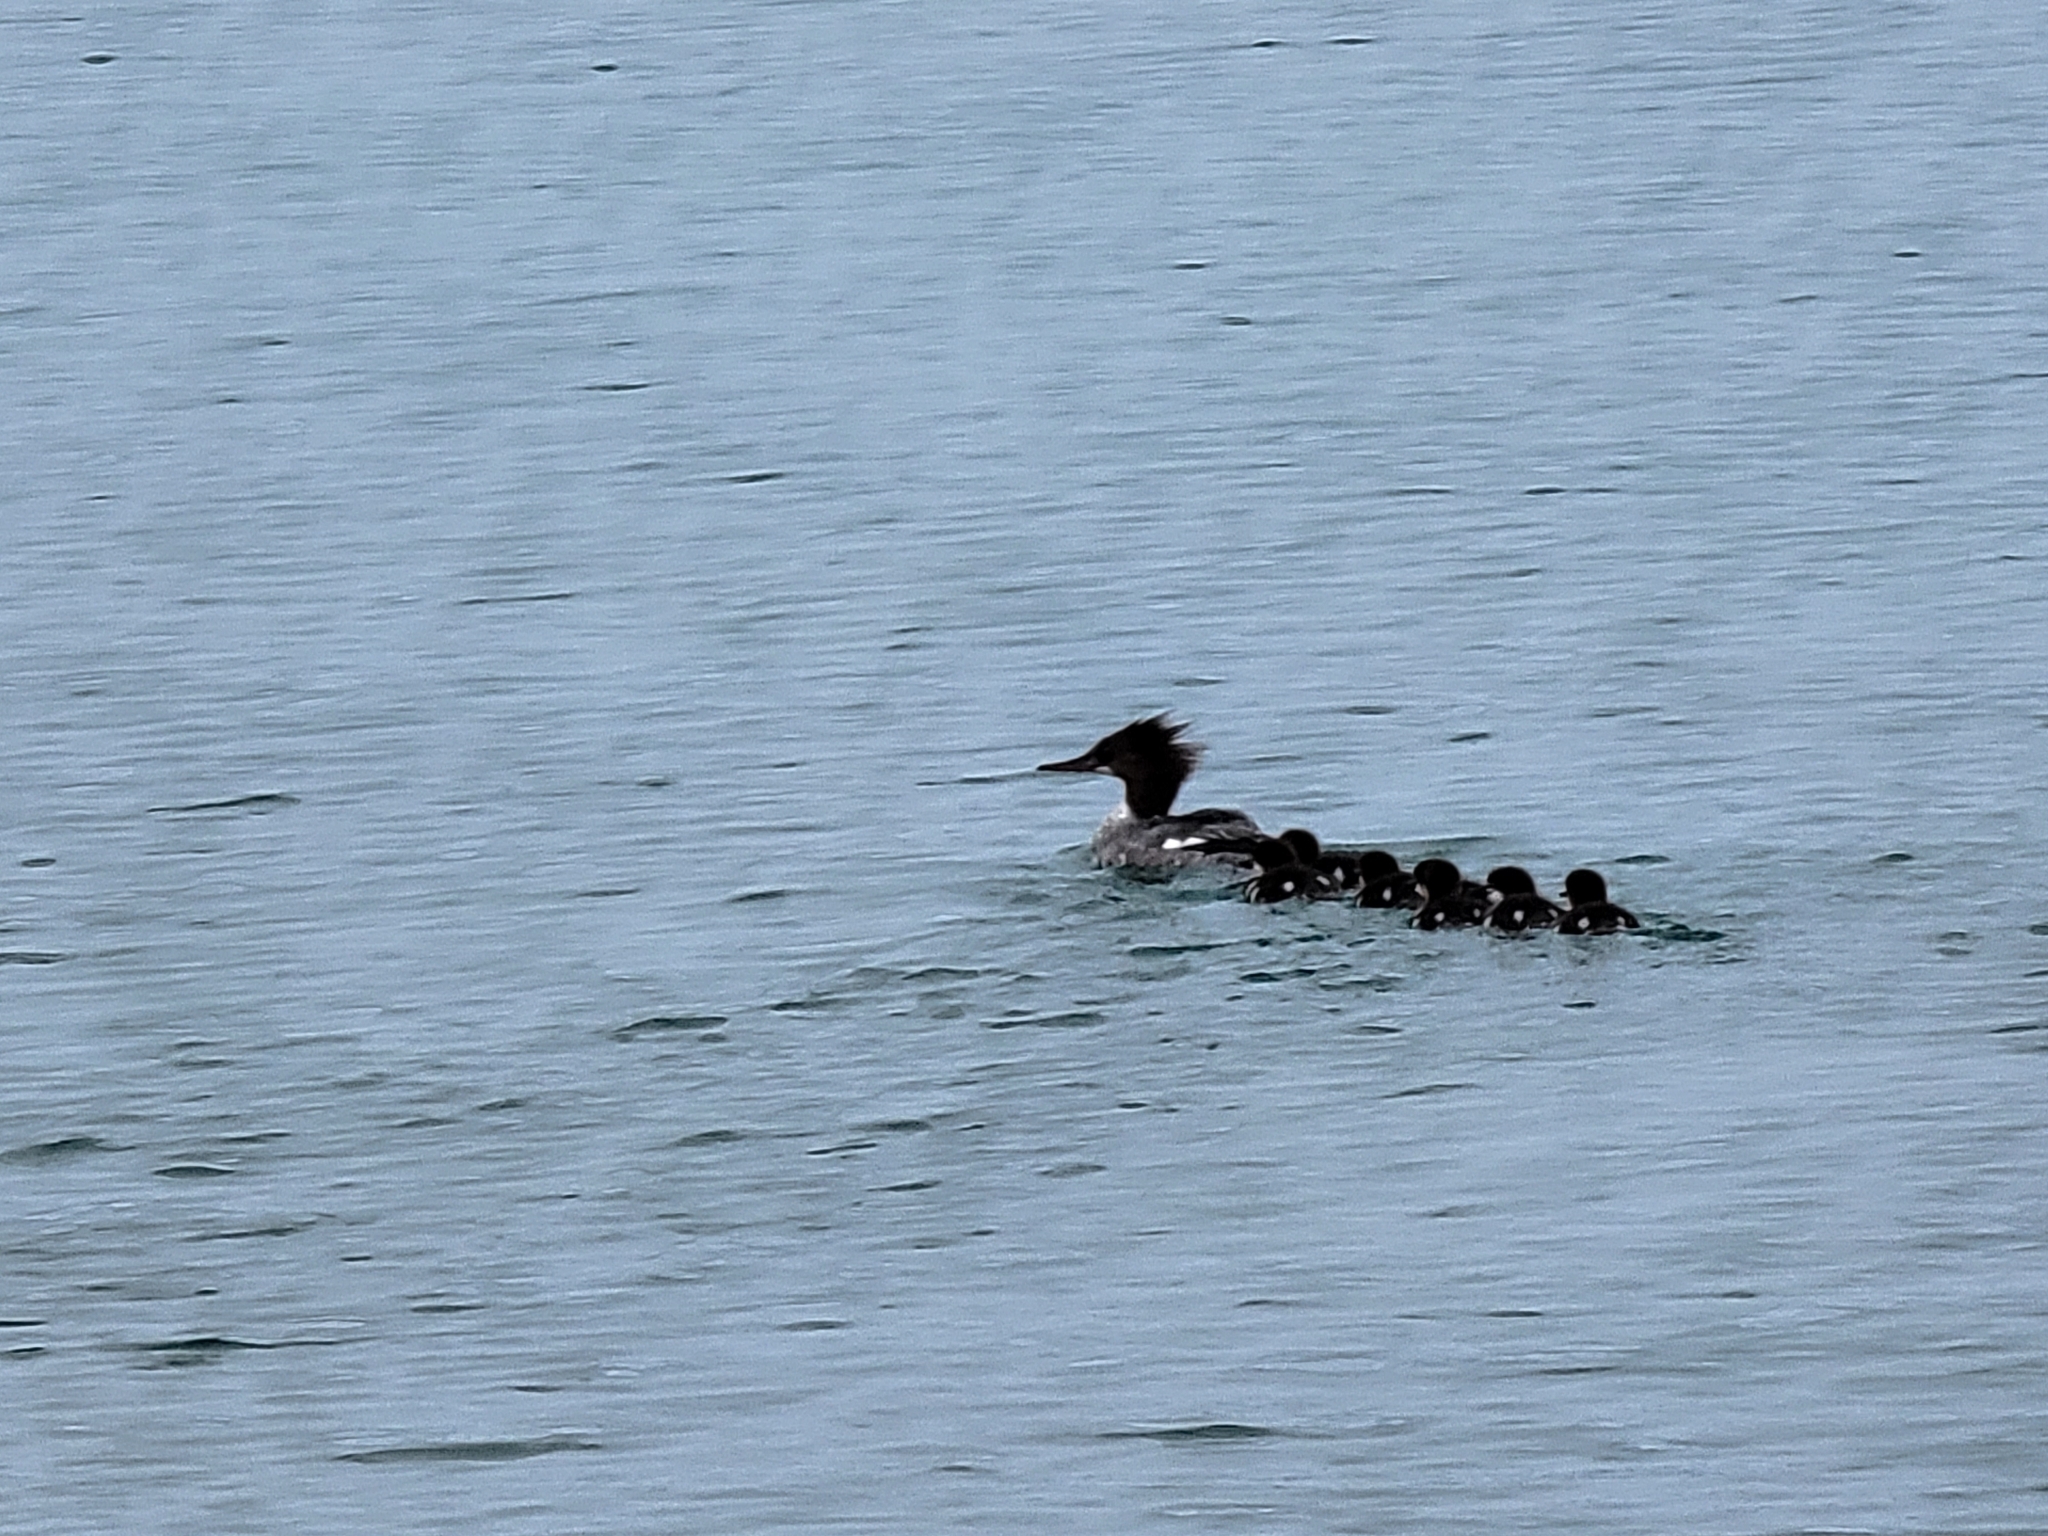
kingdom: Animalia
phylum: Chordata
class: Aves
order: Anseriformes
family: Anatidae
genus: Mergus
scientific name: Mergus merganser
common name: Common merganser
